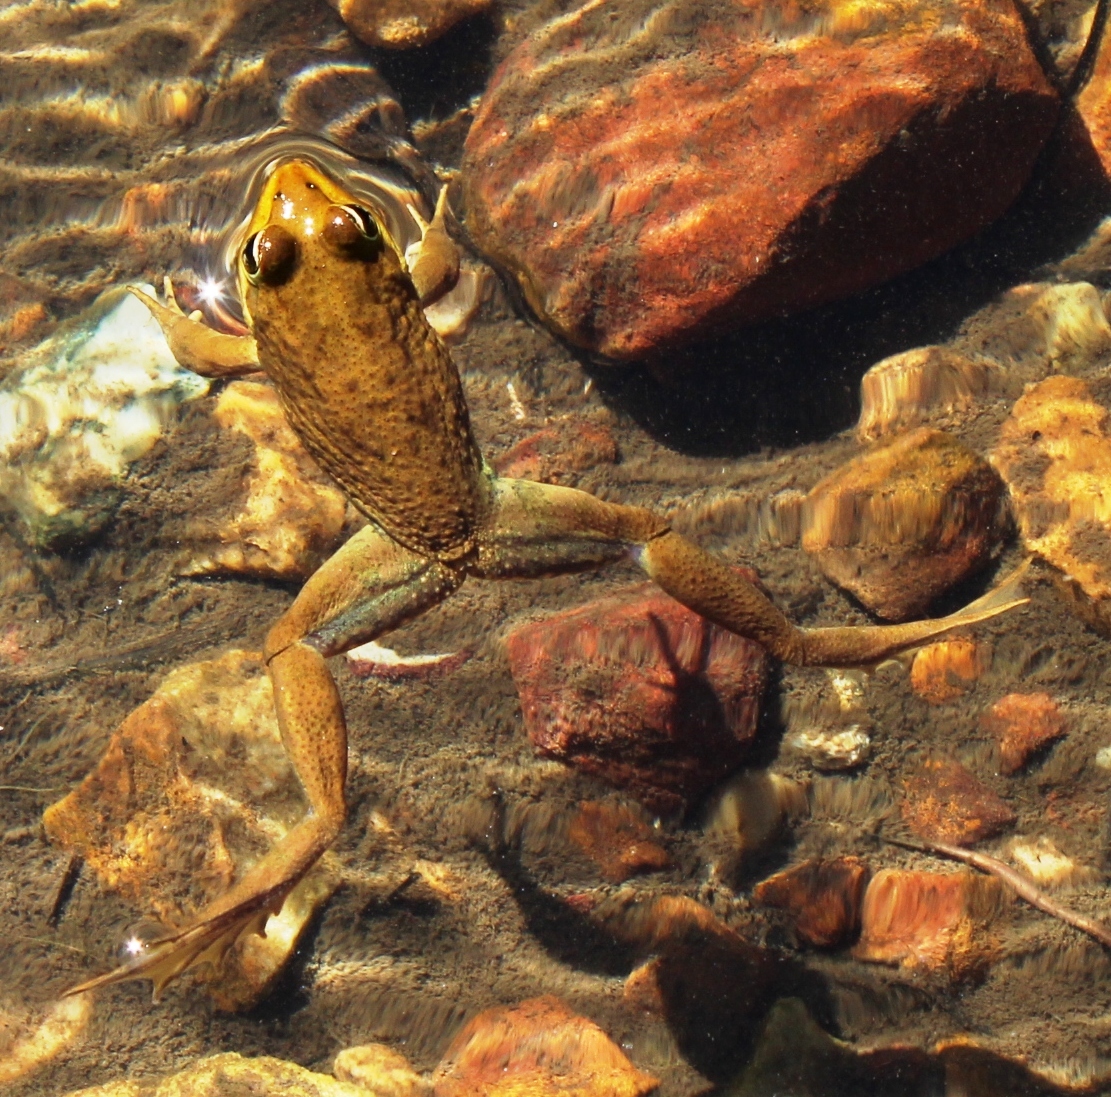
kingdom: Animalia
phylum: Chordata
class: Amphibia
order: Anura
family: Pyxicephalidae
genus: Amietia
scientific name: Amietia fuscigula
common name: Cape rana
